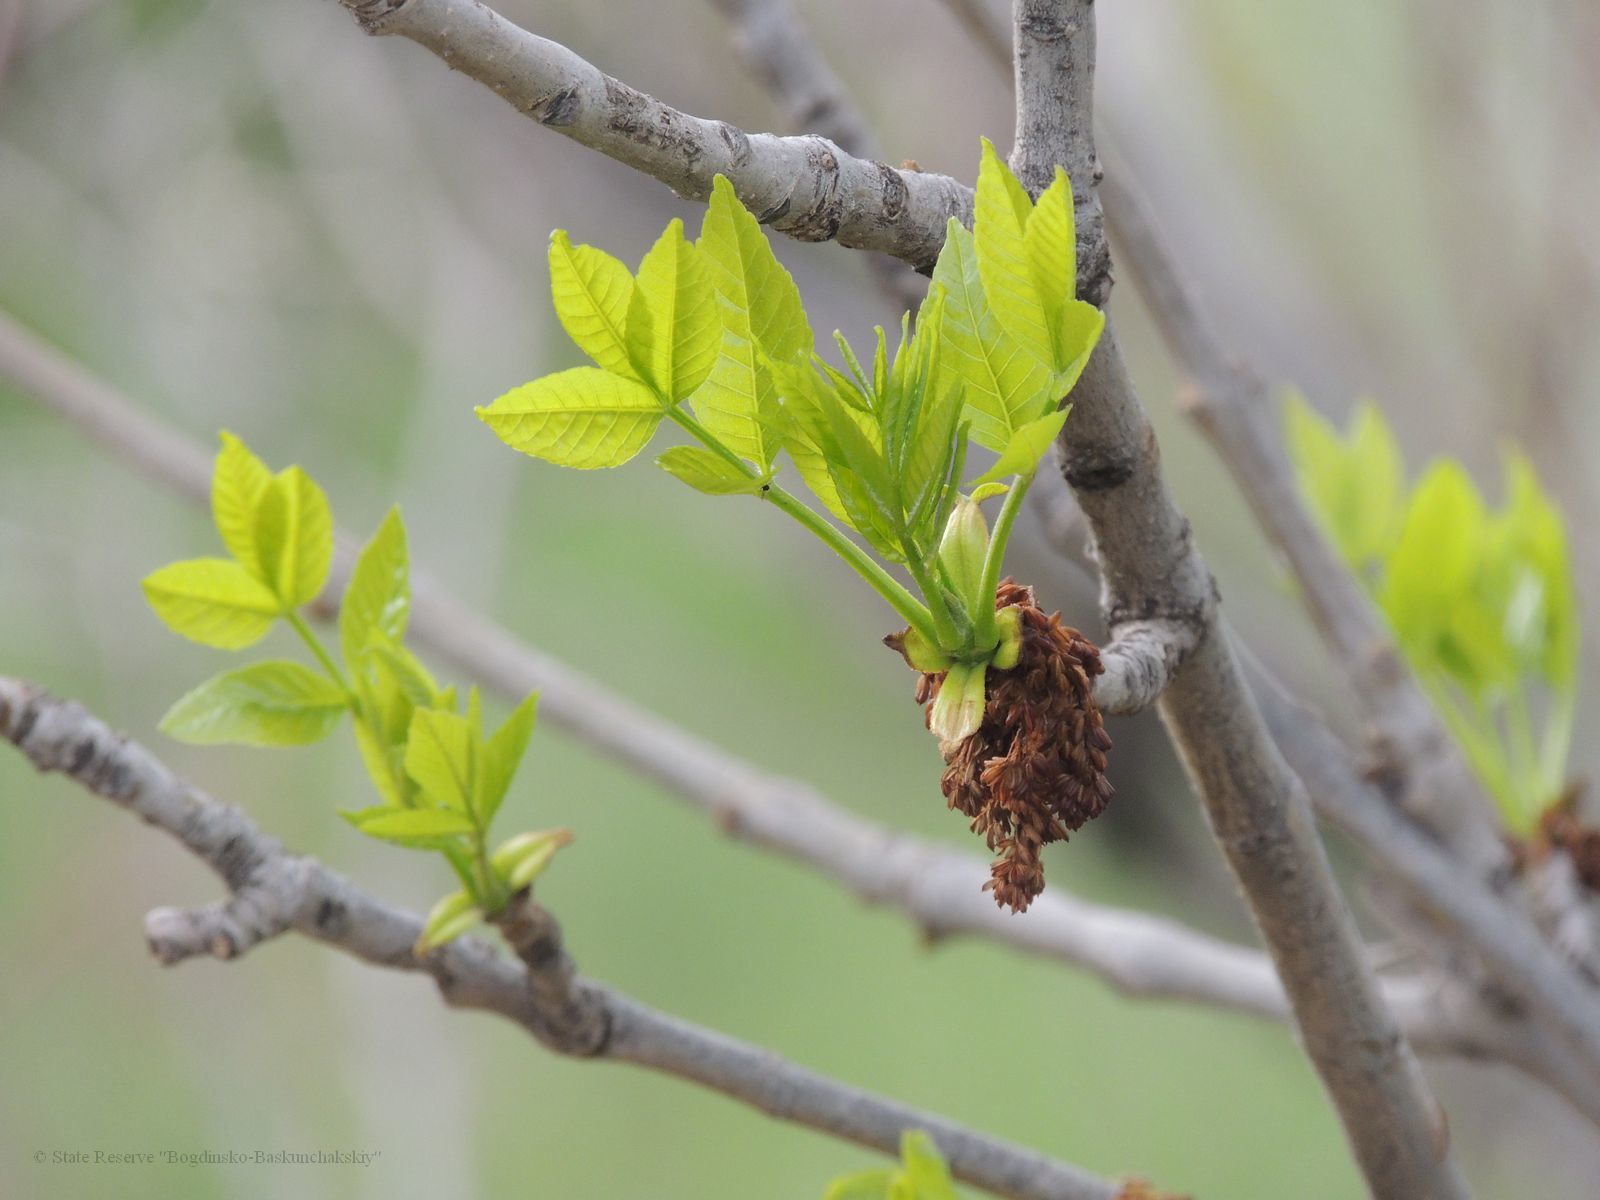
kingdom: Plantae
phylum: Tracheophyta
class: Magnoliopsida
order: Lamiales
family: Oleaceae
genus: Fraxinus
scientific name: Fraxinus pennsylvanica
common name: Green ash
